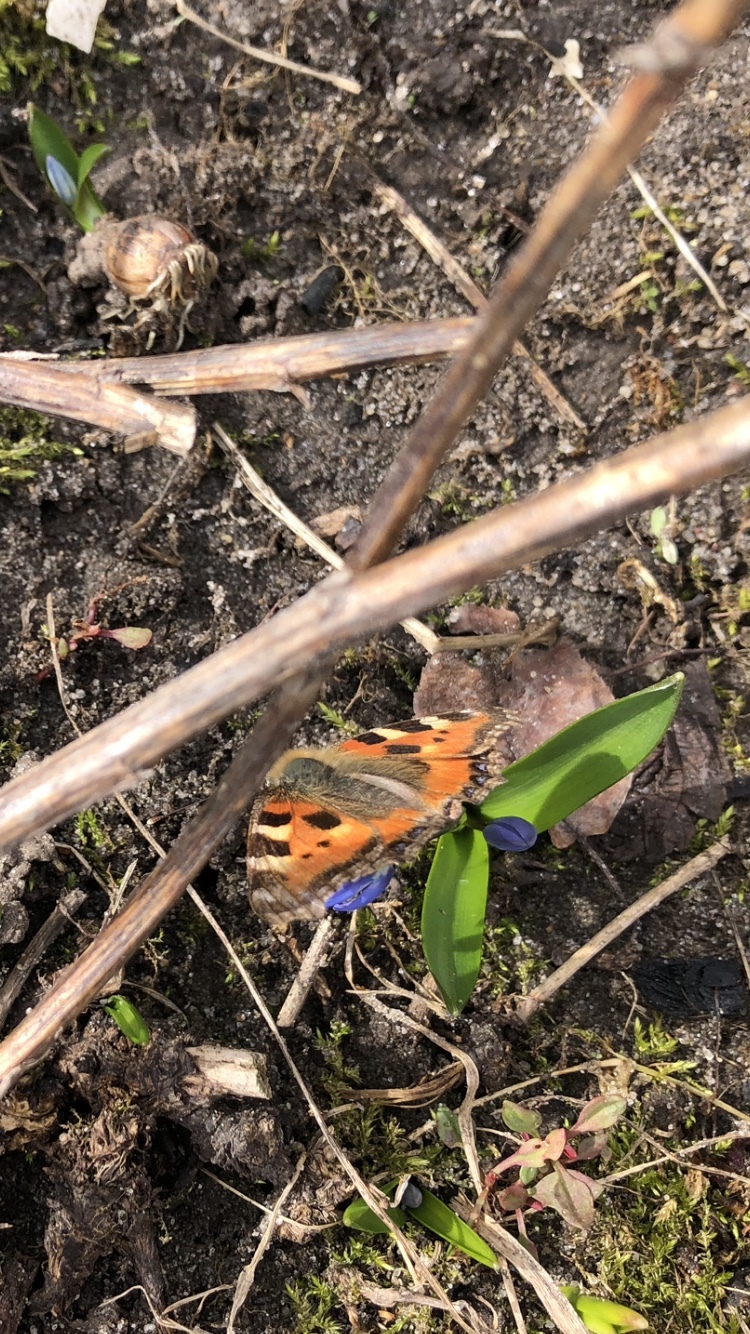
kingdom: Animalia
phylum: Arthropoda
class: Insecta
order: Lepidoptera
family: Nymphalidae
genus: Aglais
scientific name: Aglais urticae
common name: Small tortoiseshell
